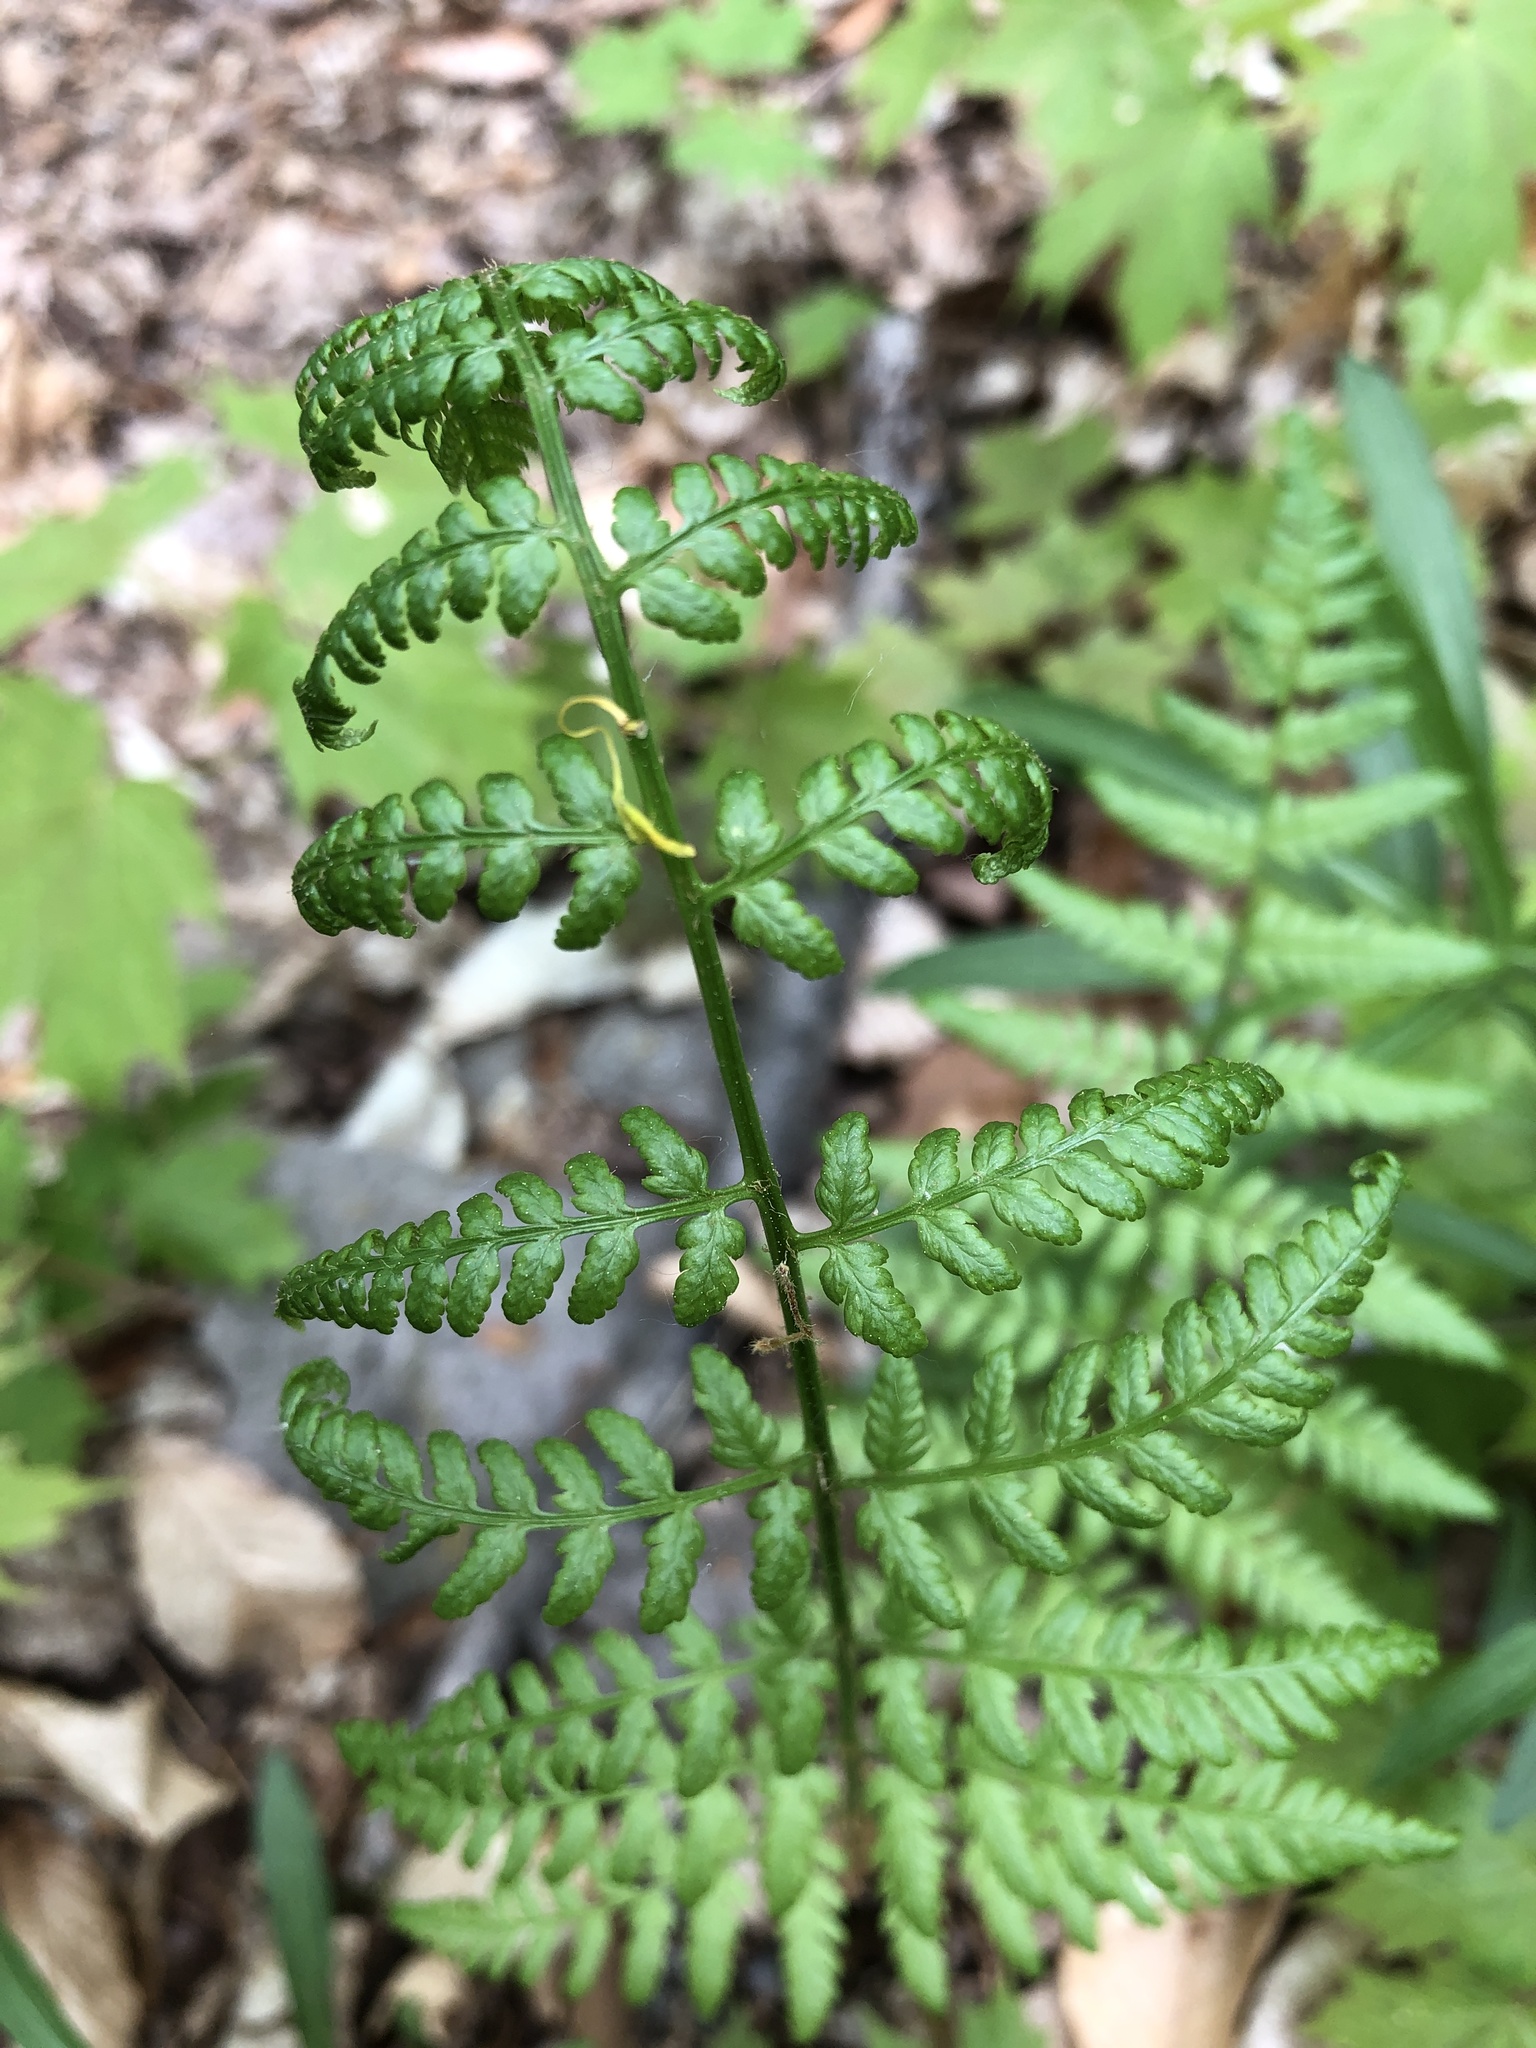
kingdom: Plantae
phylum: Tracheophyta
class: Polypodiopsida
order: Polypodiales
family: Dryopteridaceae
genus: Dryopteris
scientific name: Dryopteris carthusiana
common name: Narrow buckler-fern
